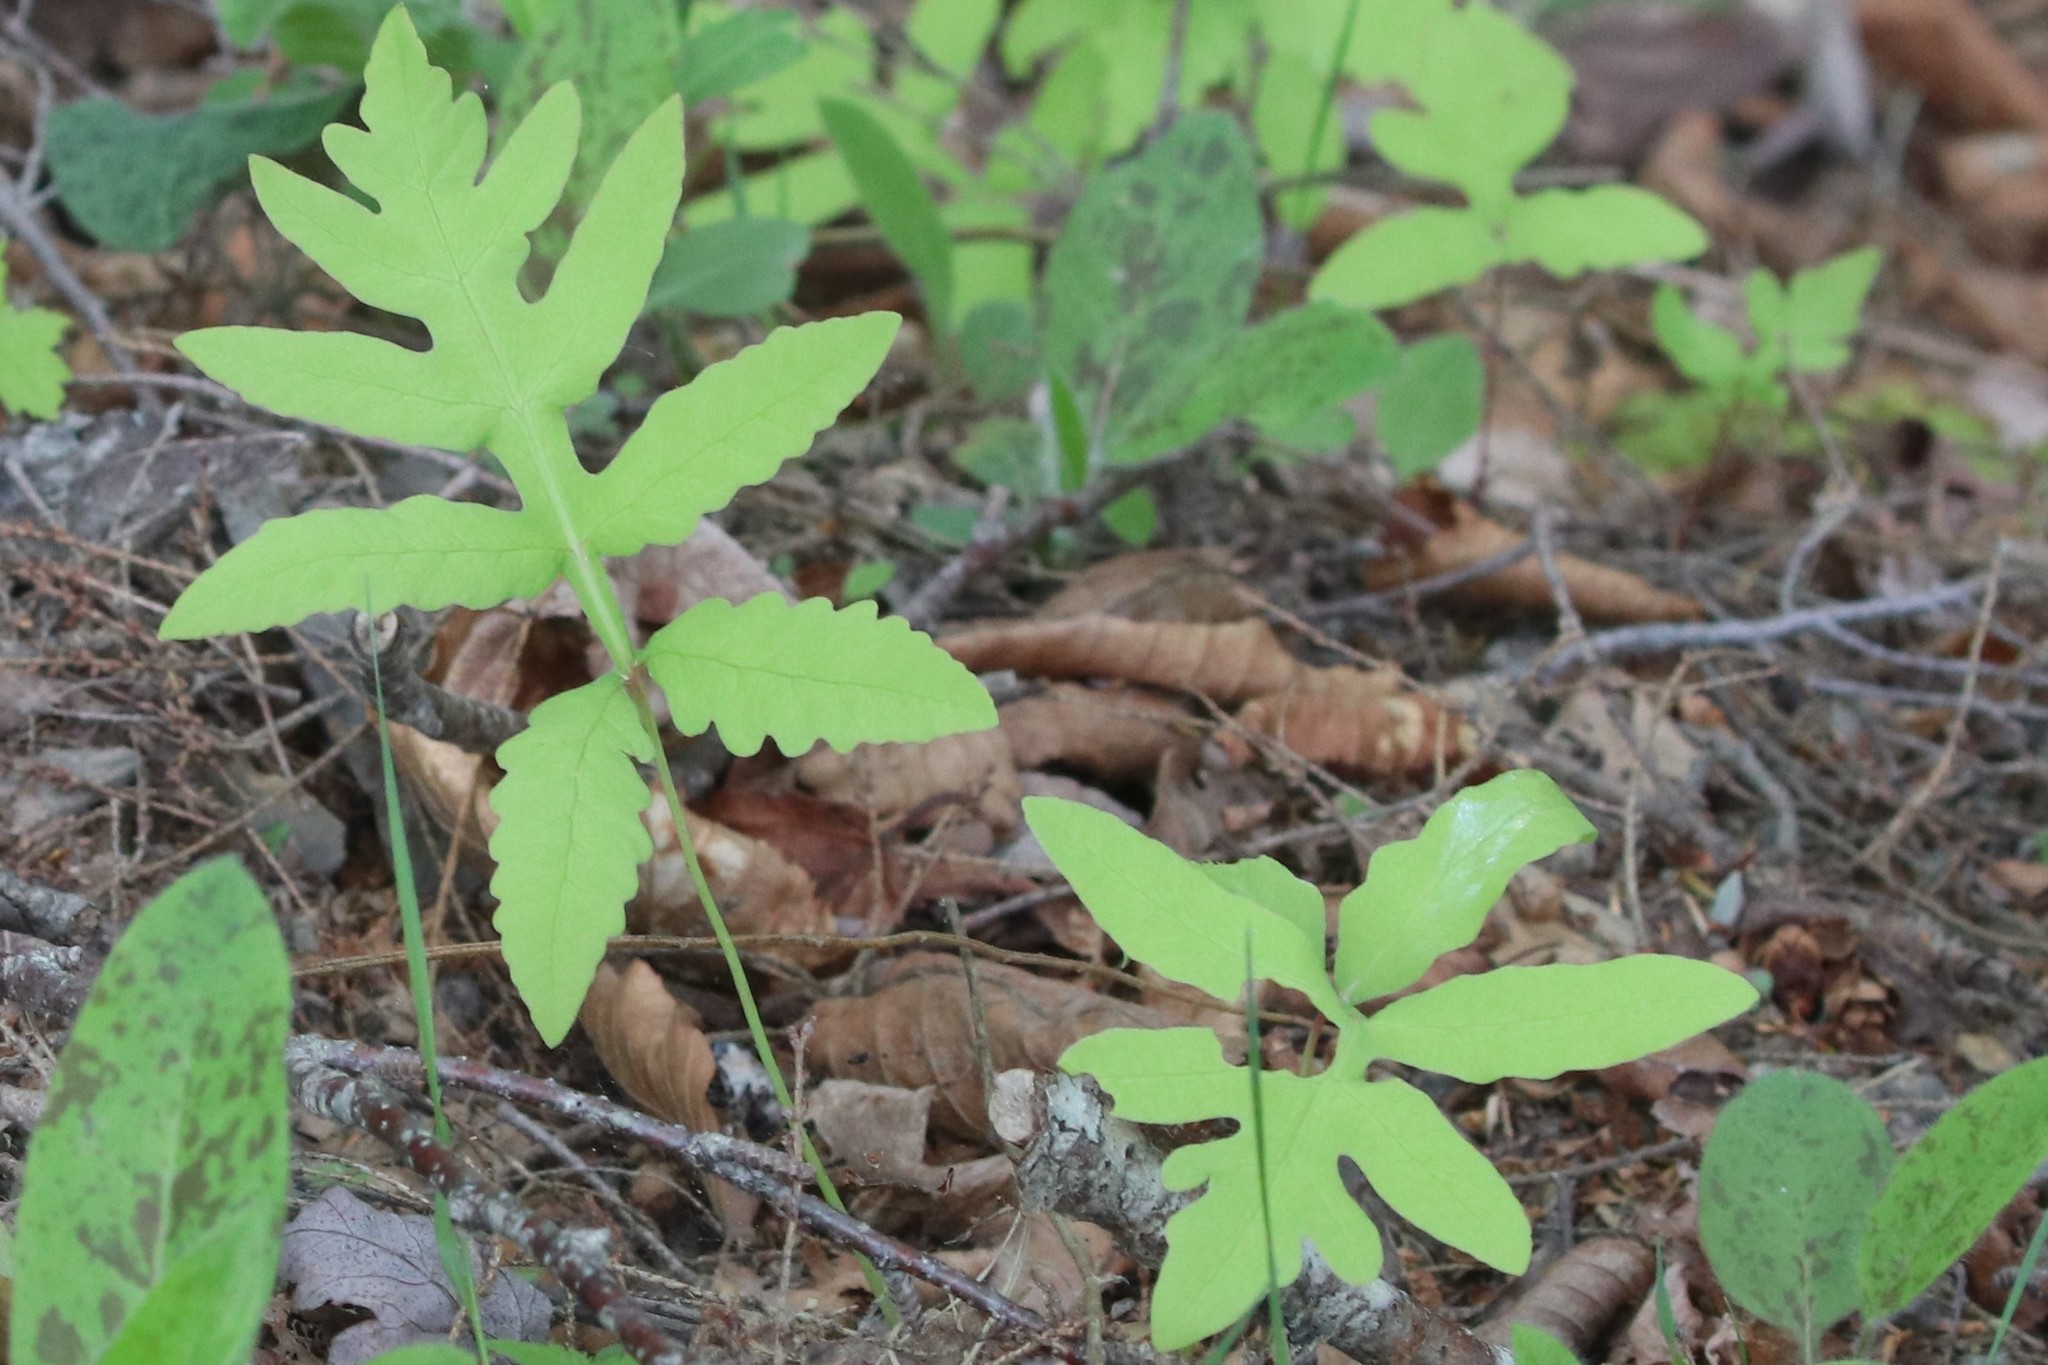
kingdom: Plantae
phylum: Tracheophyta
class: Polypodiopsida
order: Polypodiales
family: Onocleaceae
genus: Onoclea
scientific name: Onoclea sensibilis
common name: Sensitive fern
